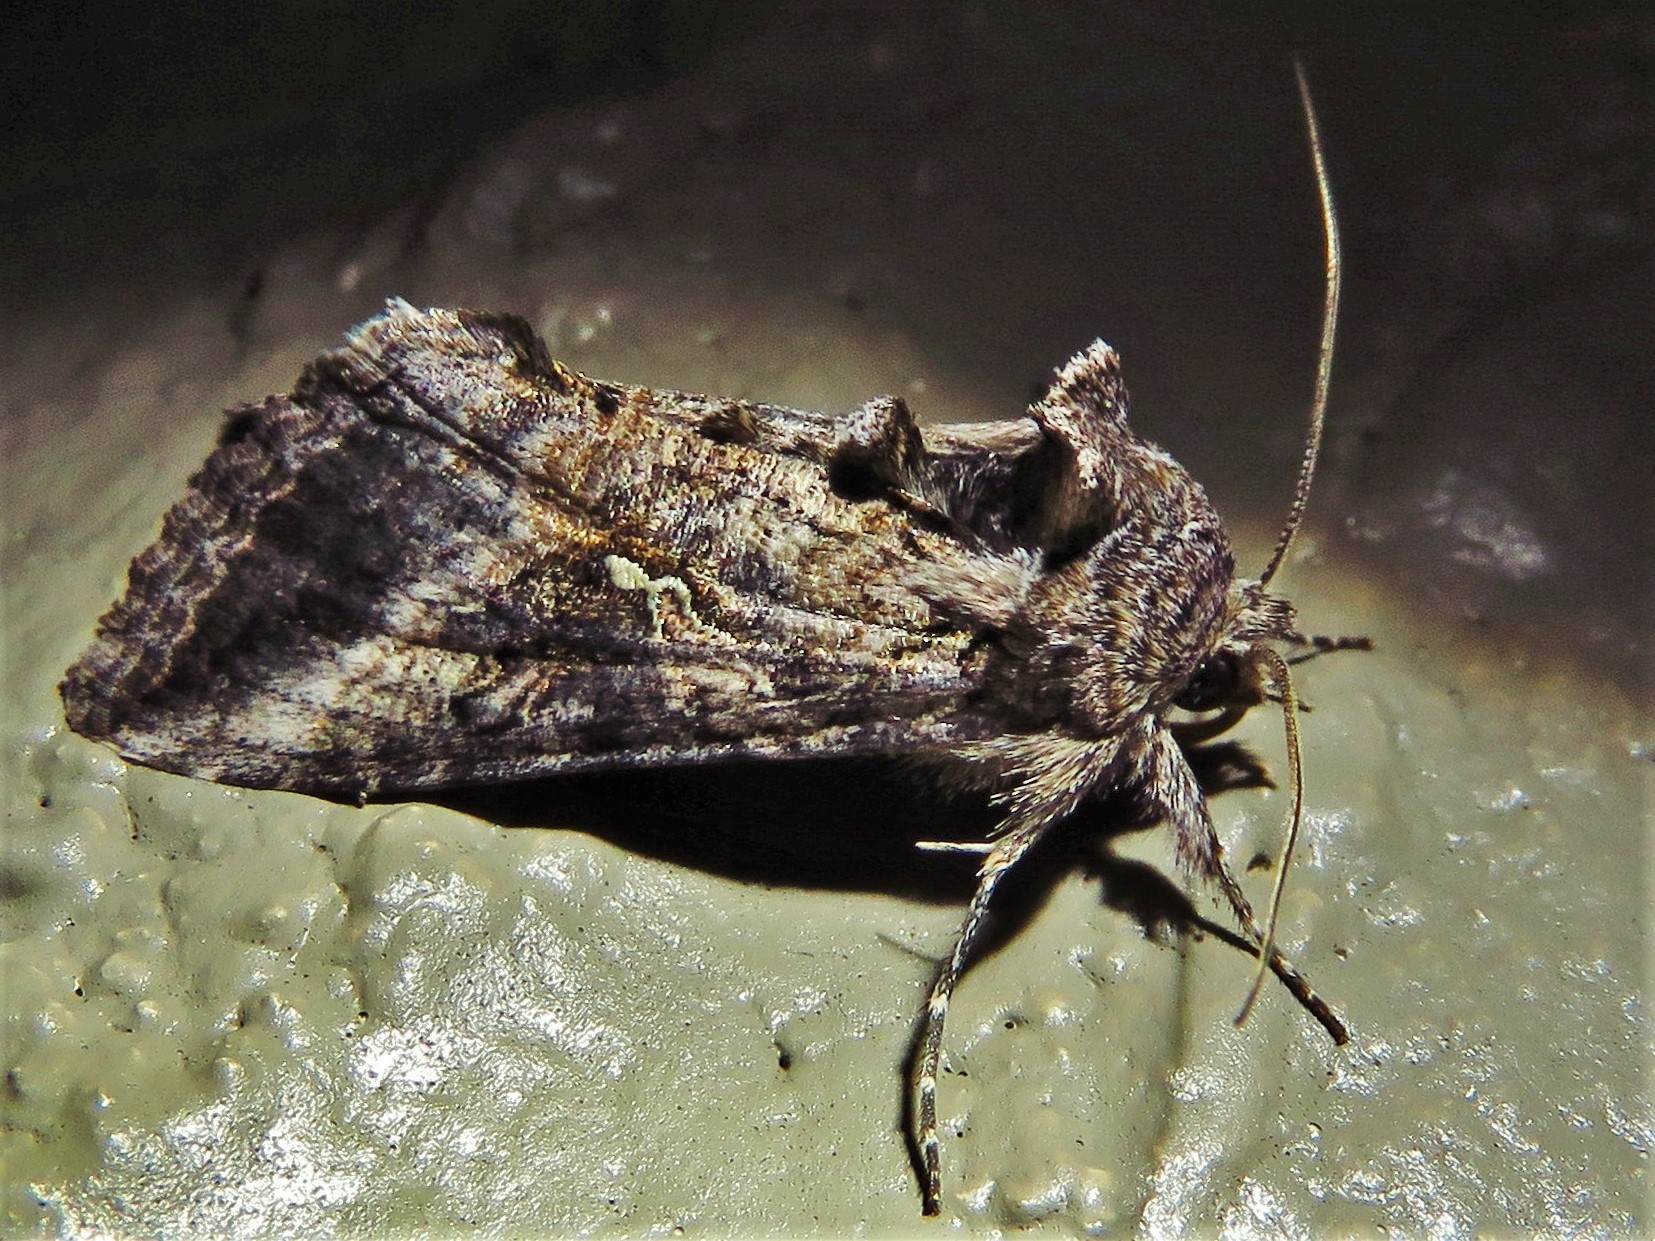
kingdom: Animalia
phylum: Arthropoda
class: Insecta
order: Lepidoptera
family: Noctuidae
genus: Rachiplusia
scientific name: Rachiplusia ou
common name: Gray looper moth
